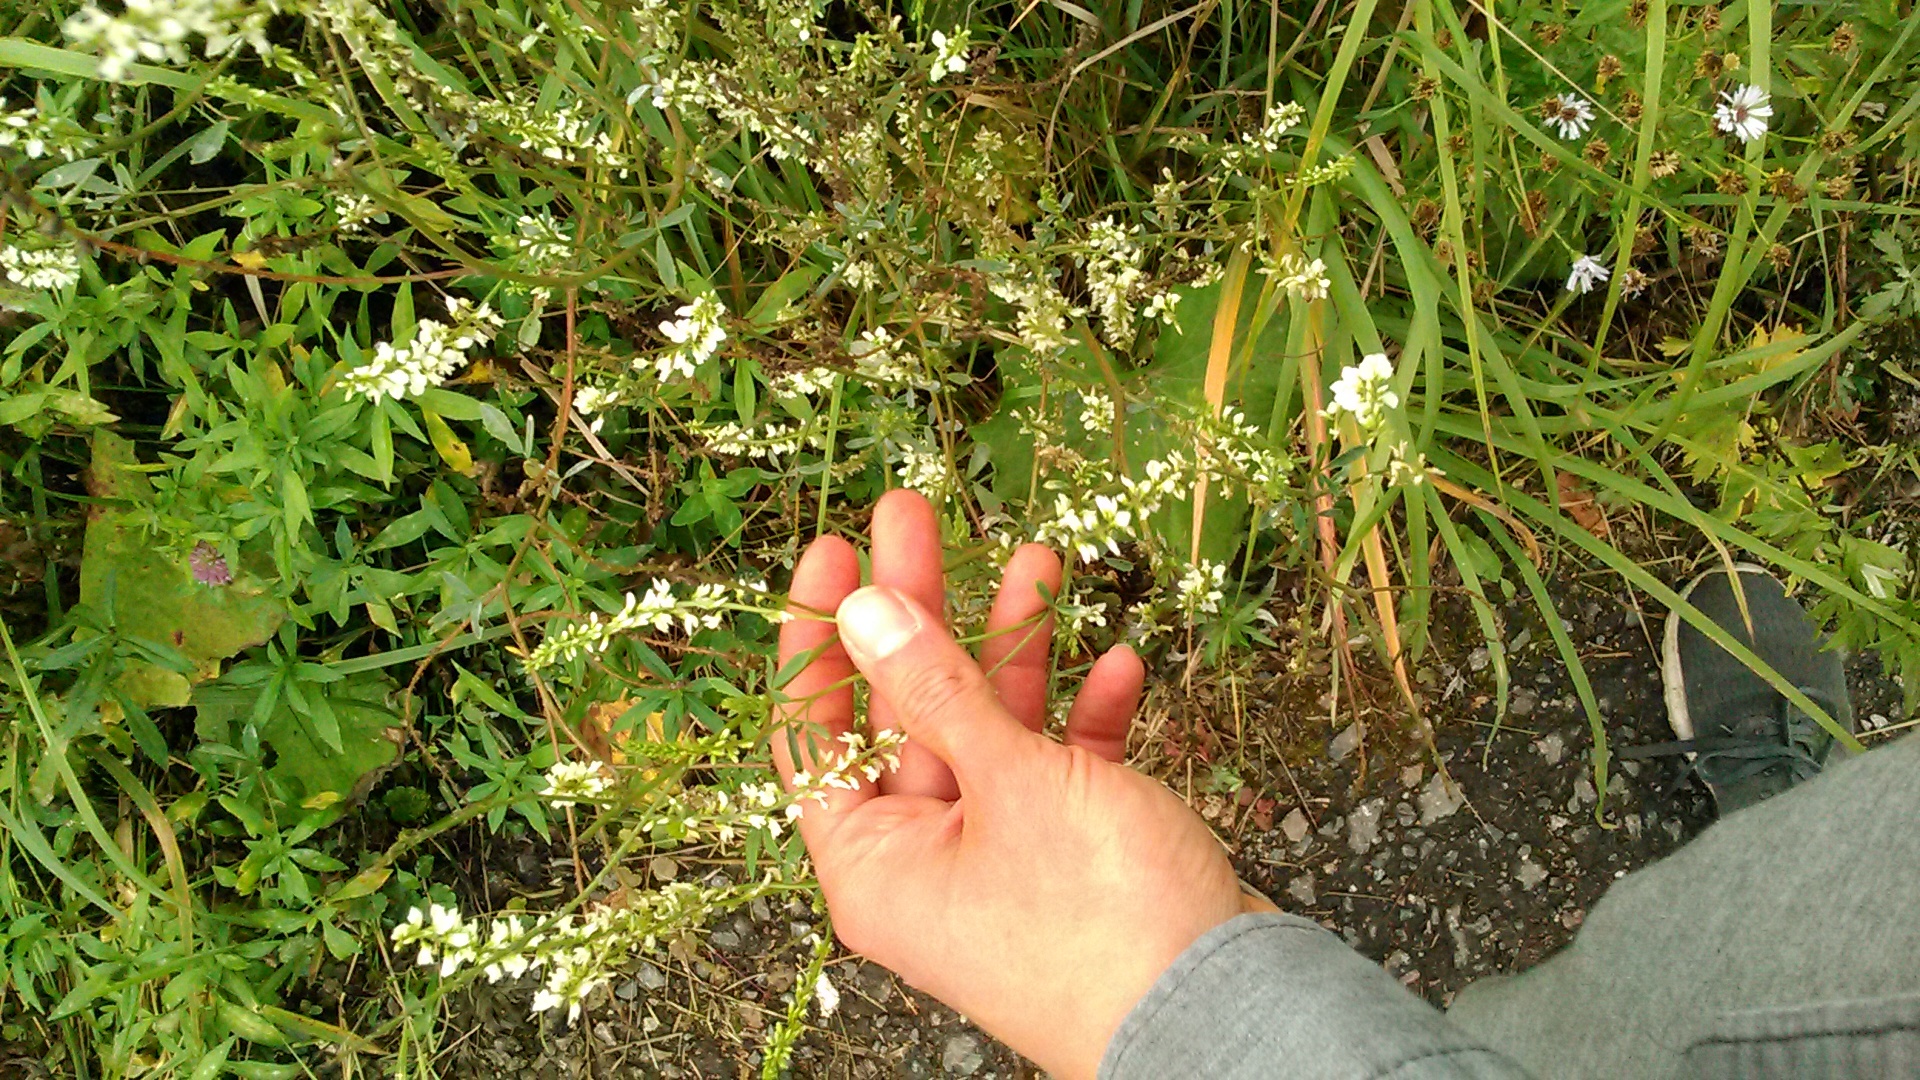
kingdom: Plantae
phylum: Tracheophyta
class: Magnoliopsida
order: Fabales
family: Fabaceae
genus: Melilotus
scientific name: Melilotus albus
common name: White melilot
